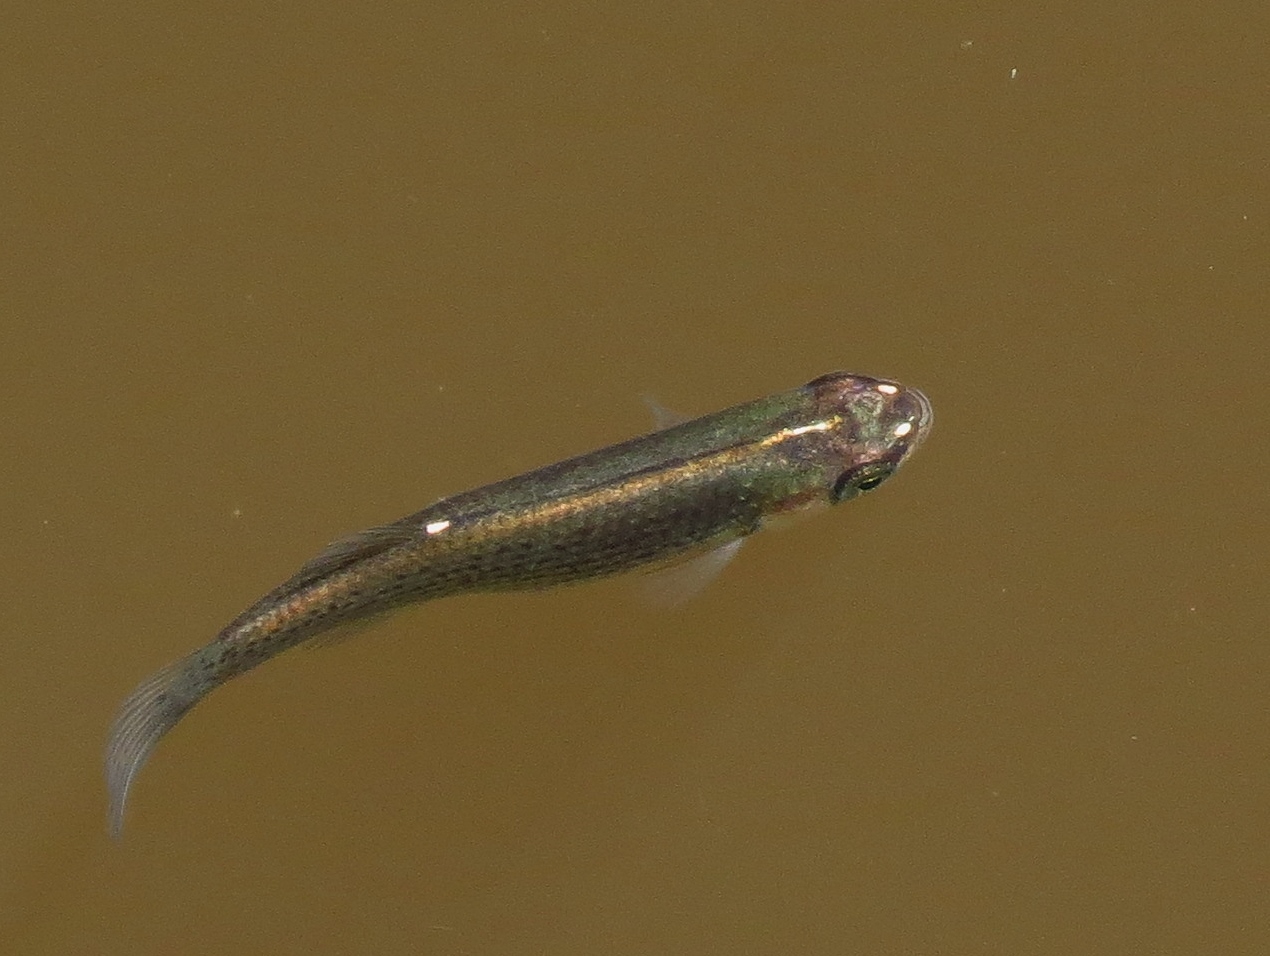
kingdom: Animalia
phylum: Chordata
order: Cyprinodontiformes
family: Fundulidae
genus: Fundulus
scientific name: Fundulus blairae
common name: Lowland topminnow
